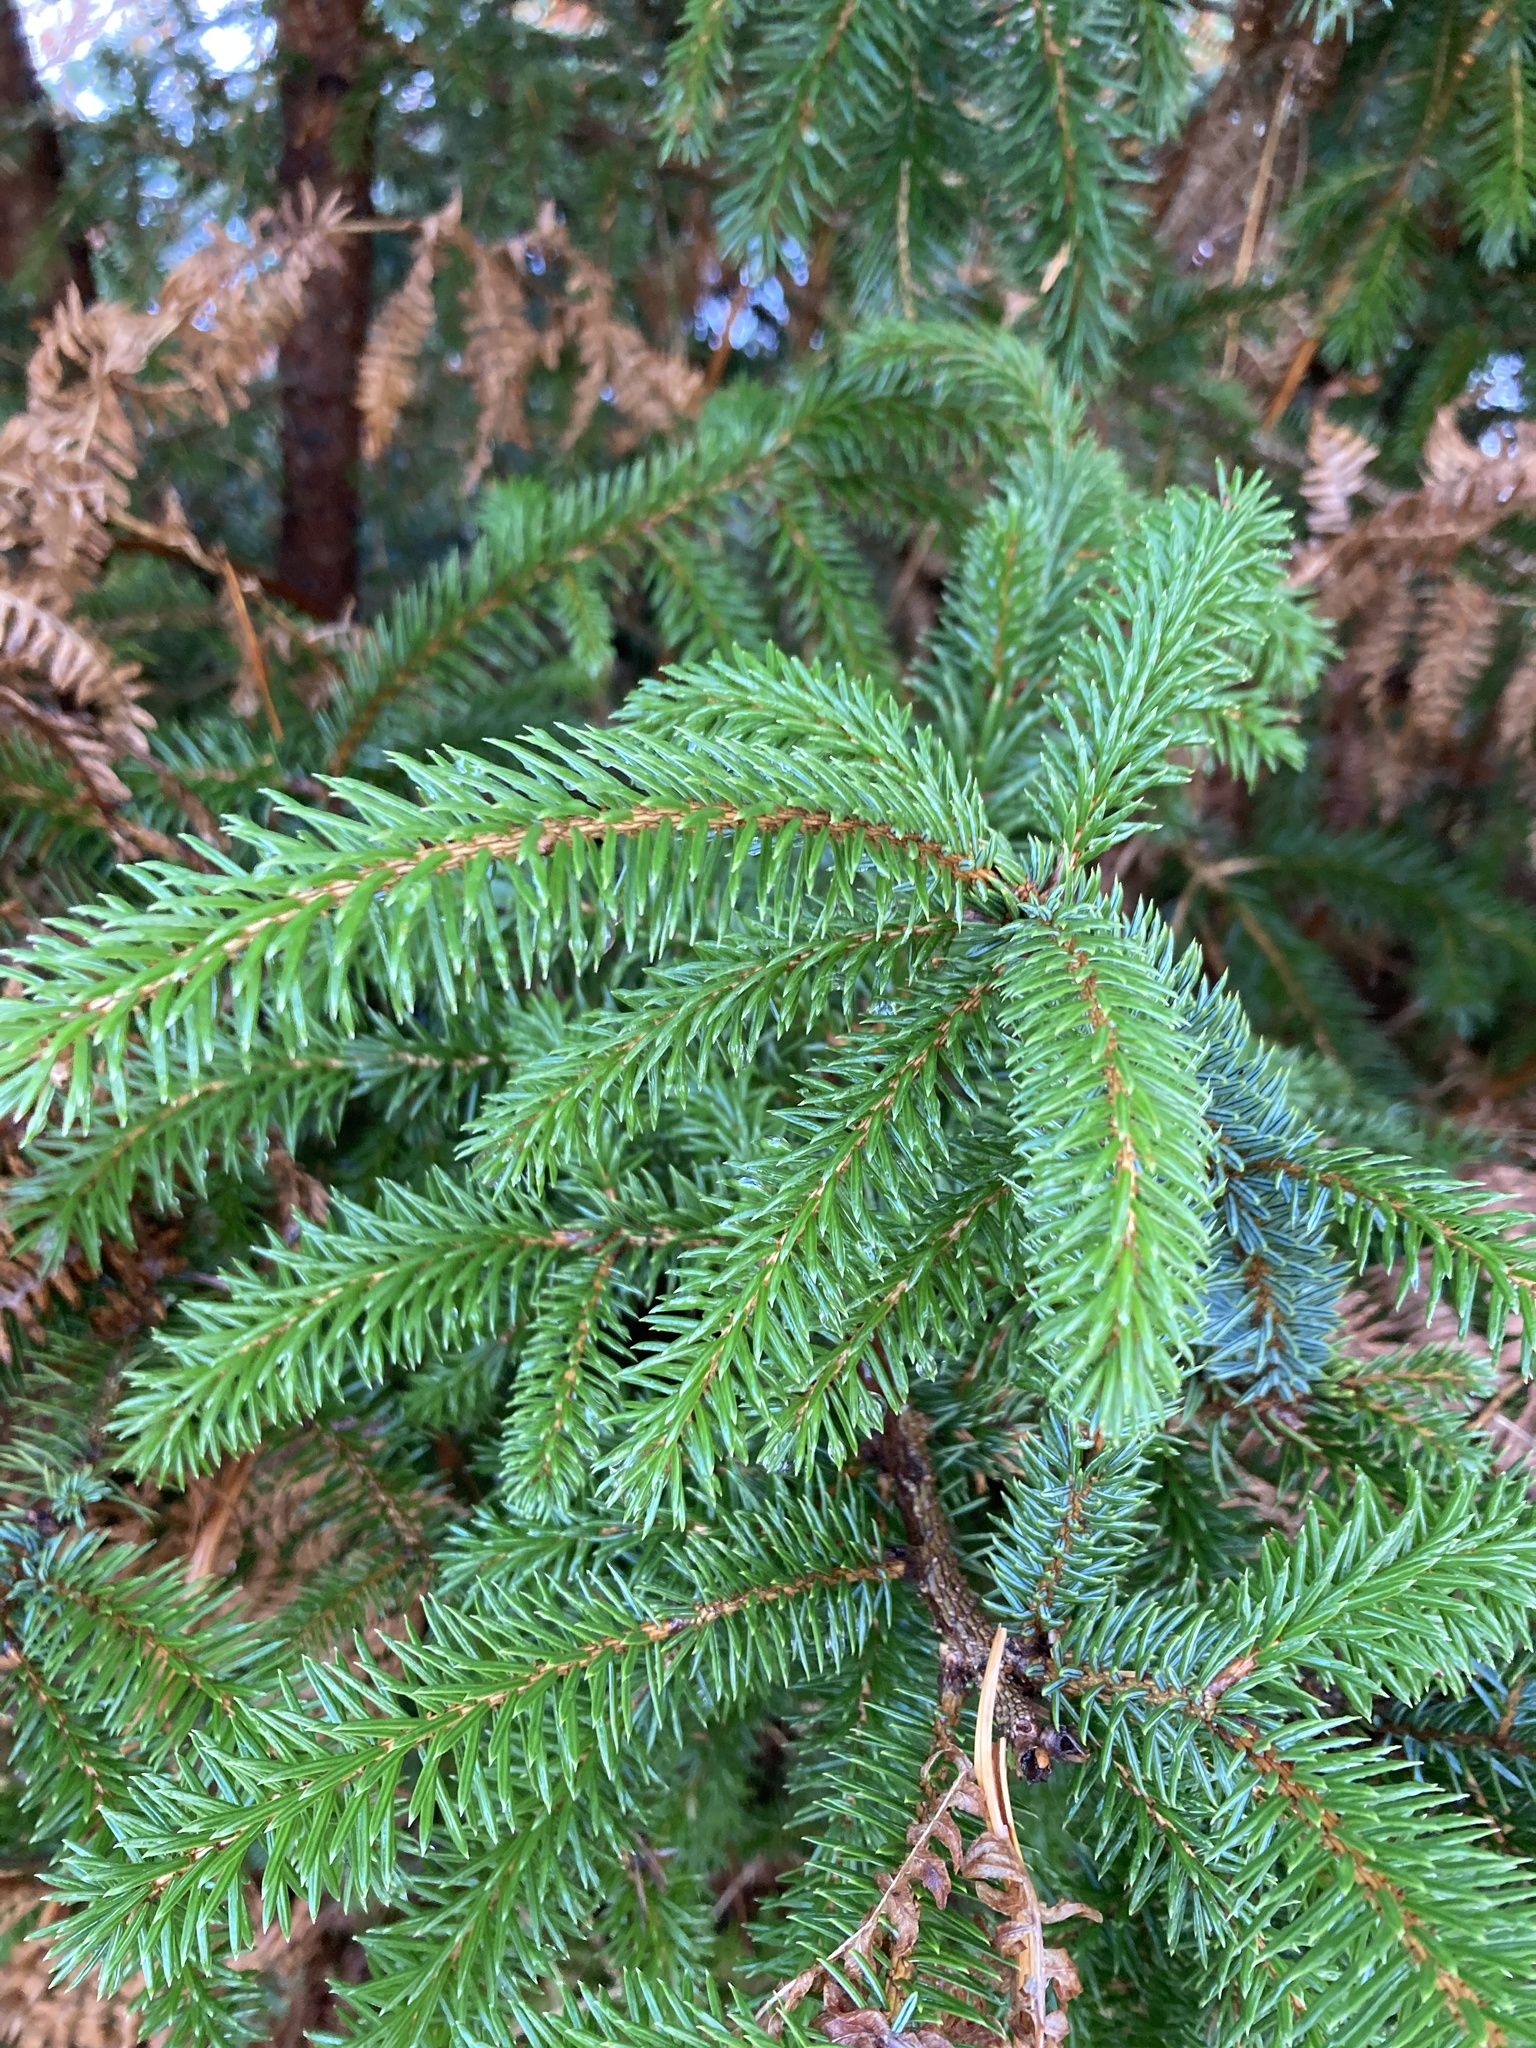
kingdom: Plantae
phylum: Tracheophyta
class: Pinopsida
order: Pinales
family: Pinaceae
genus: Picea
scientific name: Picea sitchensis
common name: Sitka spruce
